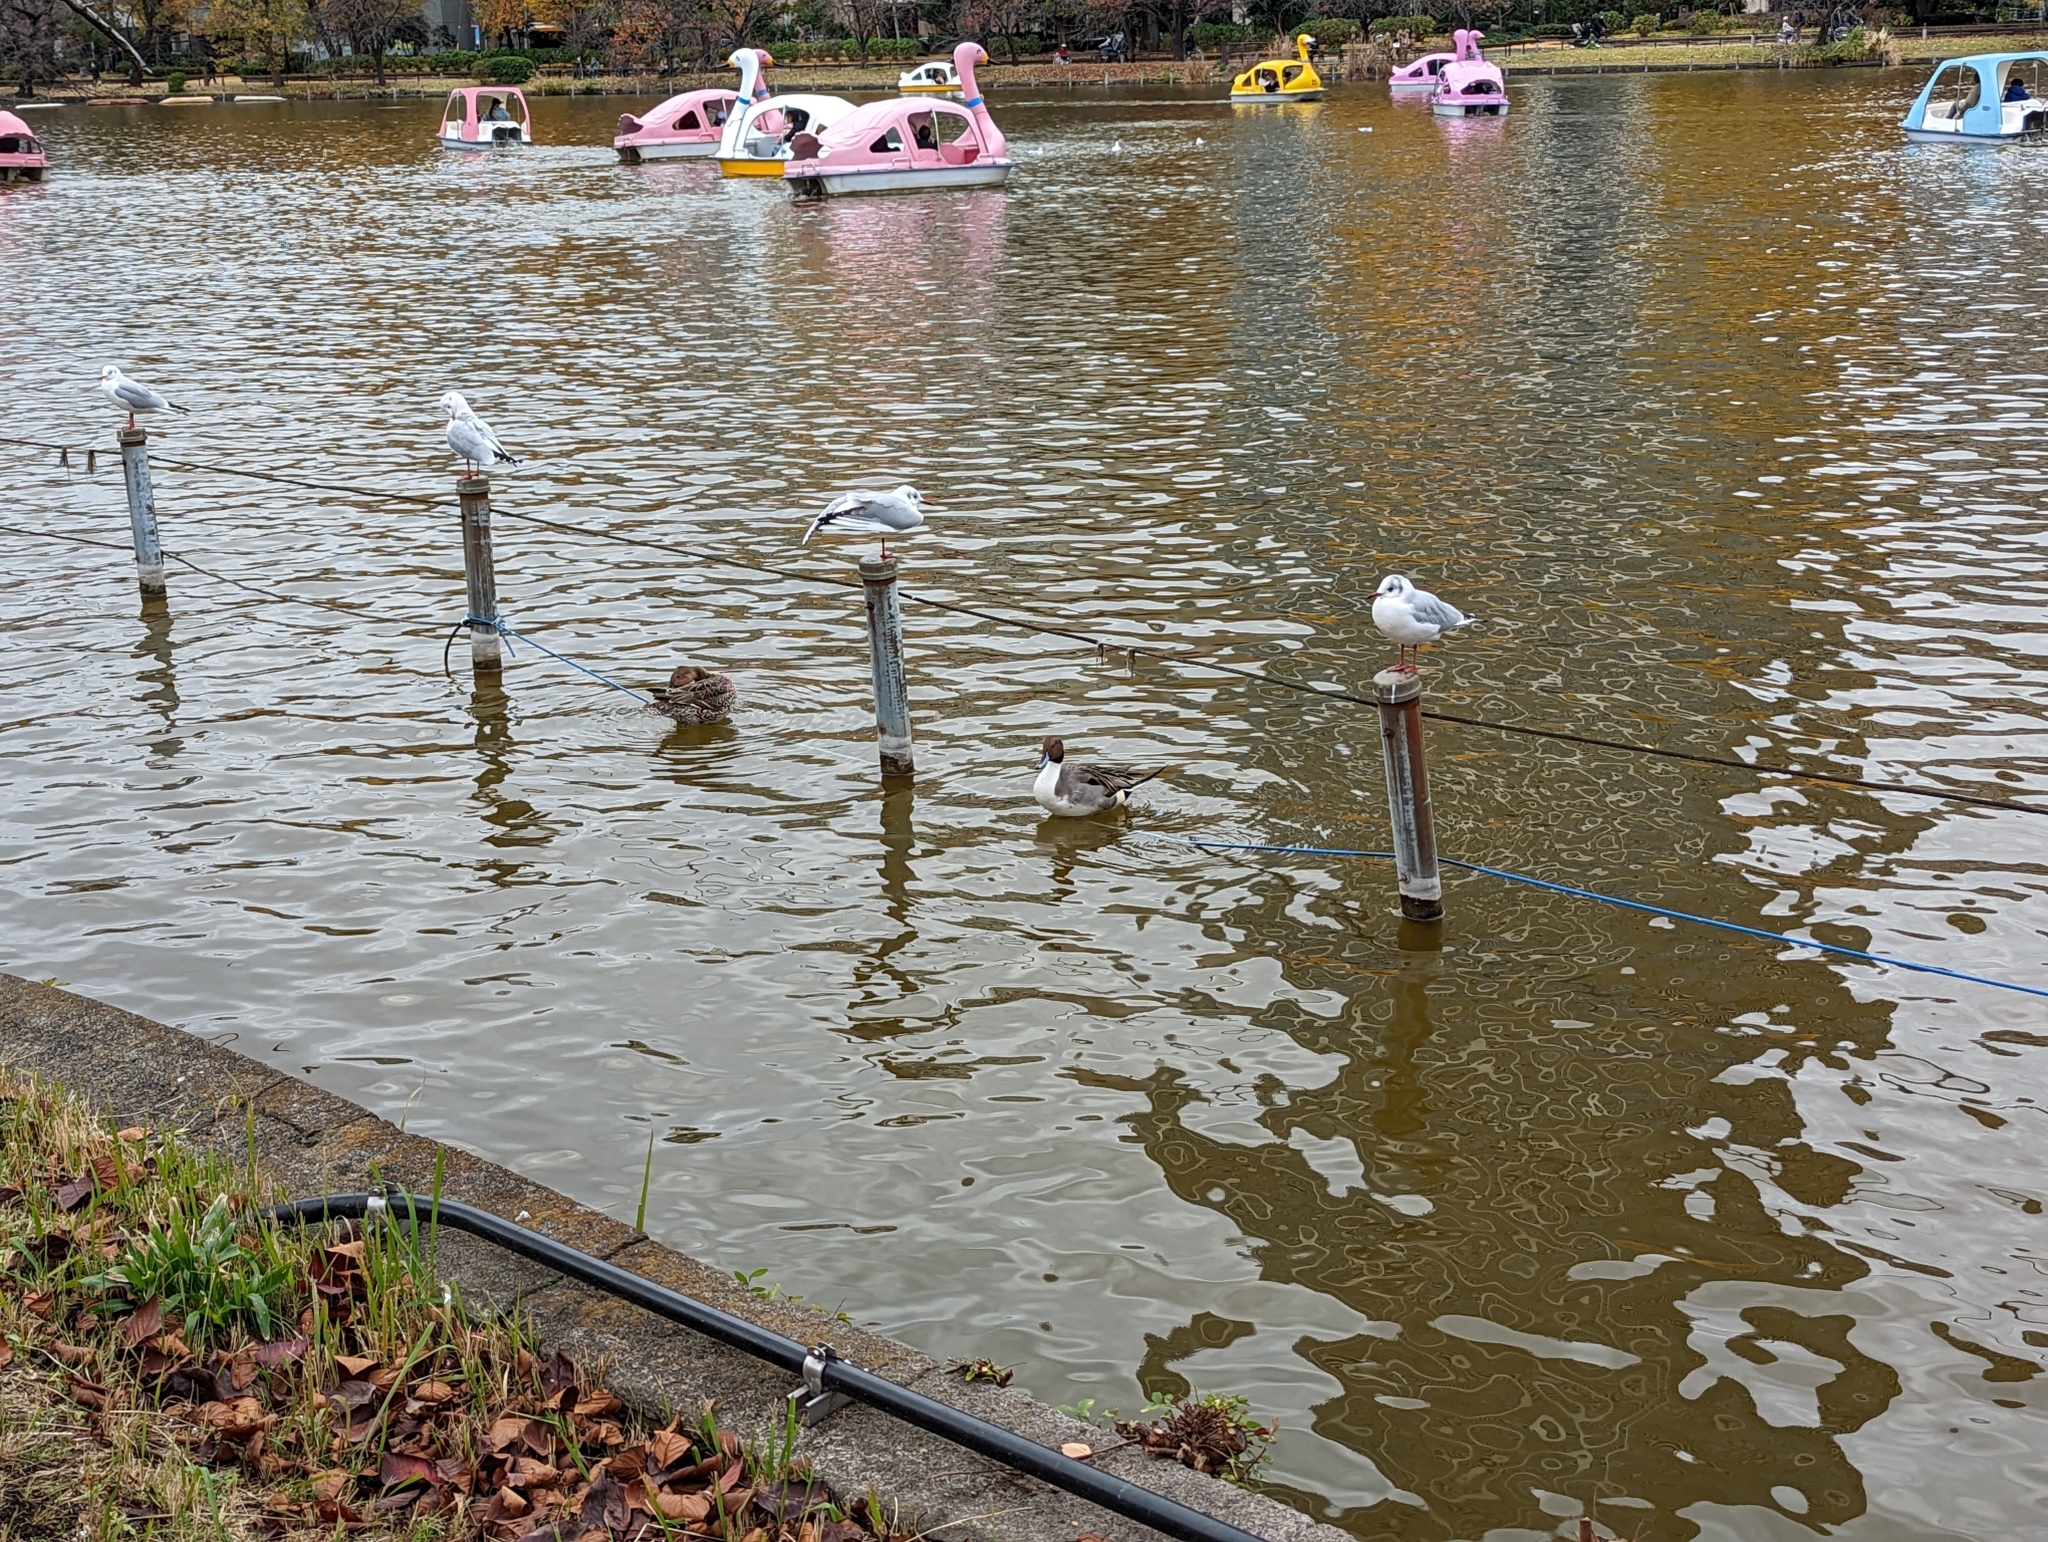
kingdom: Animalia
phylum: Chordata
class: Aves
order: Anseriformes
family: Anatidae
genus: Anas
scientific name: Anas acuta
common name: Northern pintail
